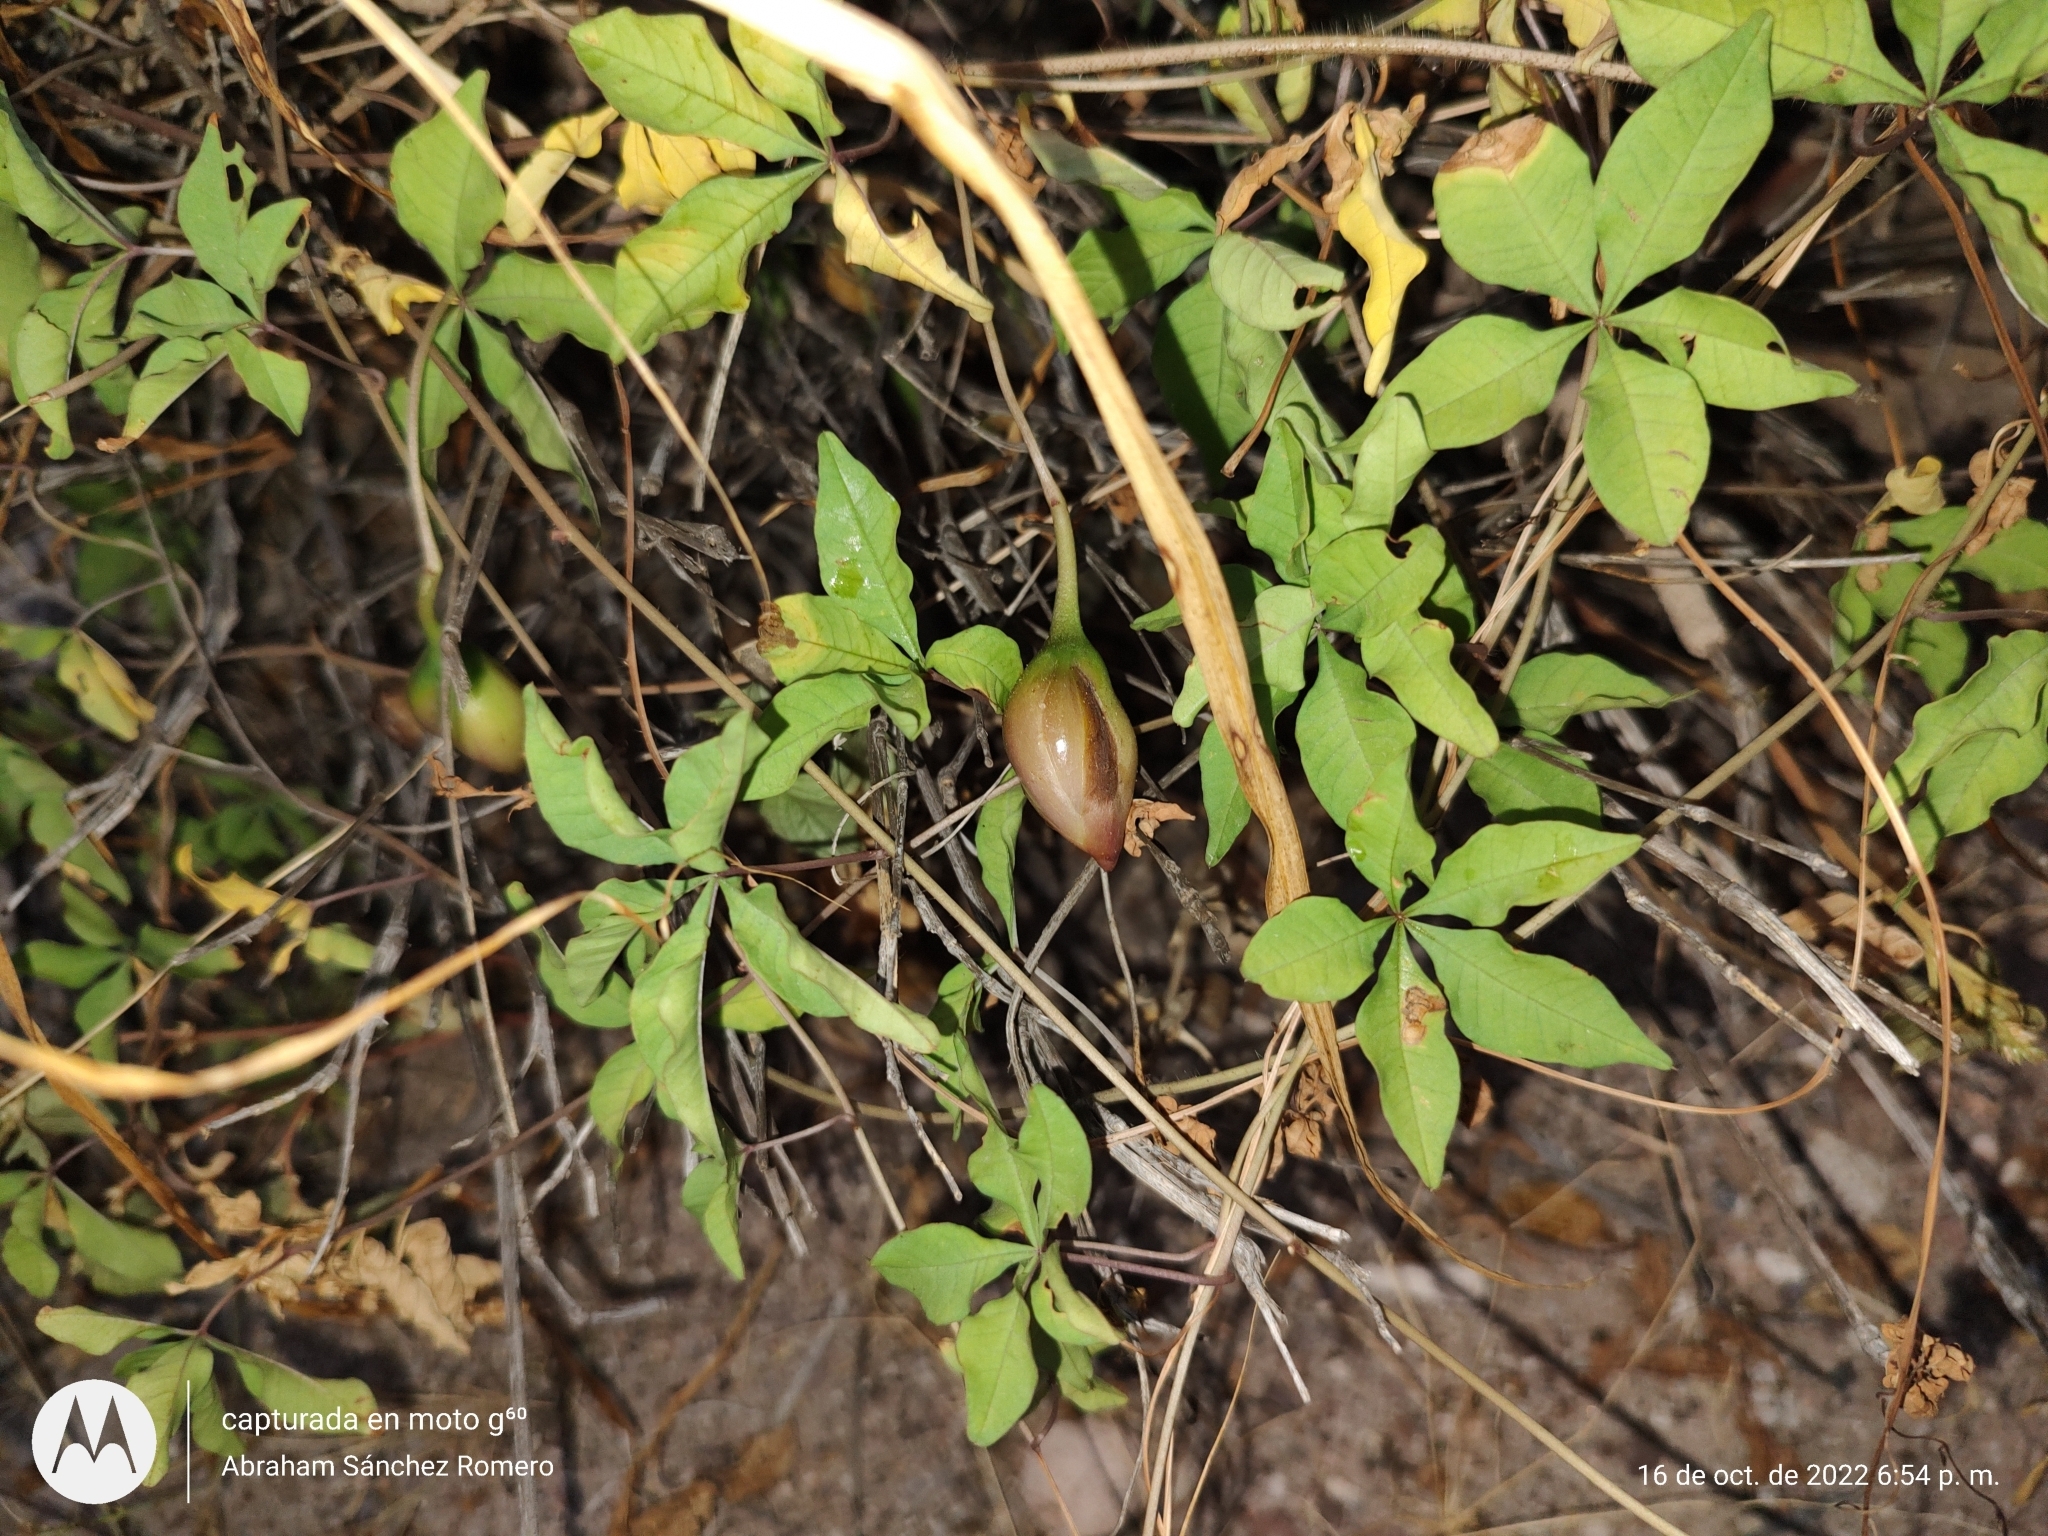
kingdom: Plantae
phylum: Tracheophyta
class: Magnoliopsida
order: Solanales
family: Convolvulaceae
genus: Distimake
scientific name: Distimake aureus
